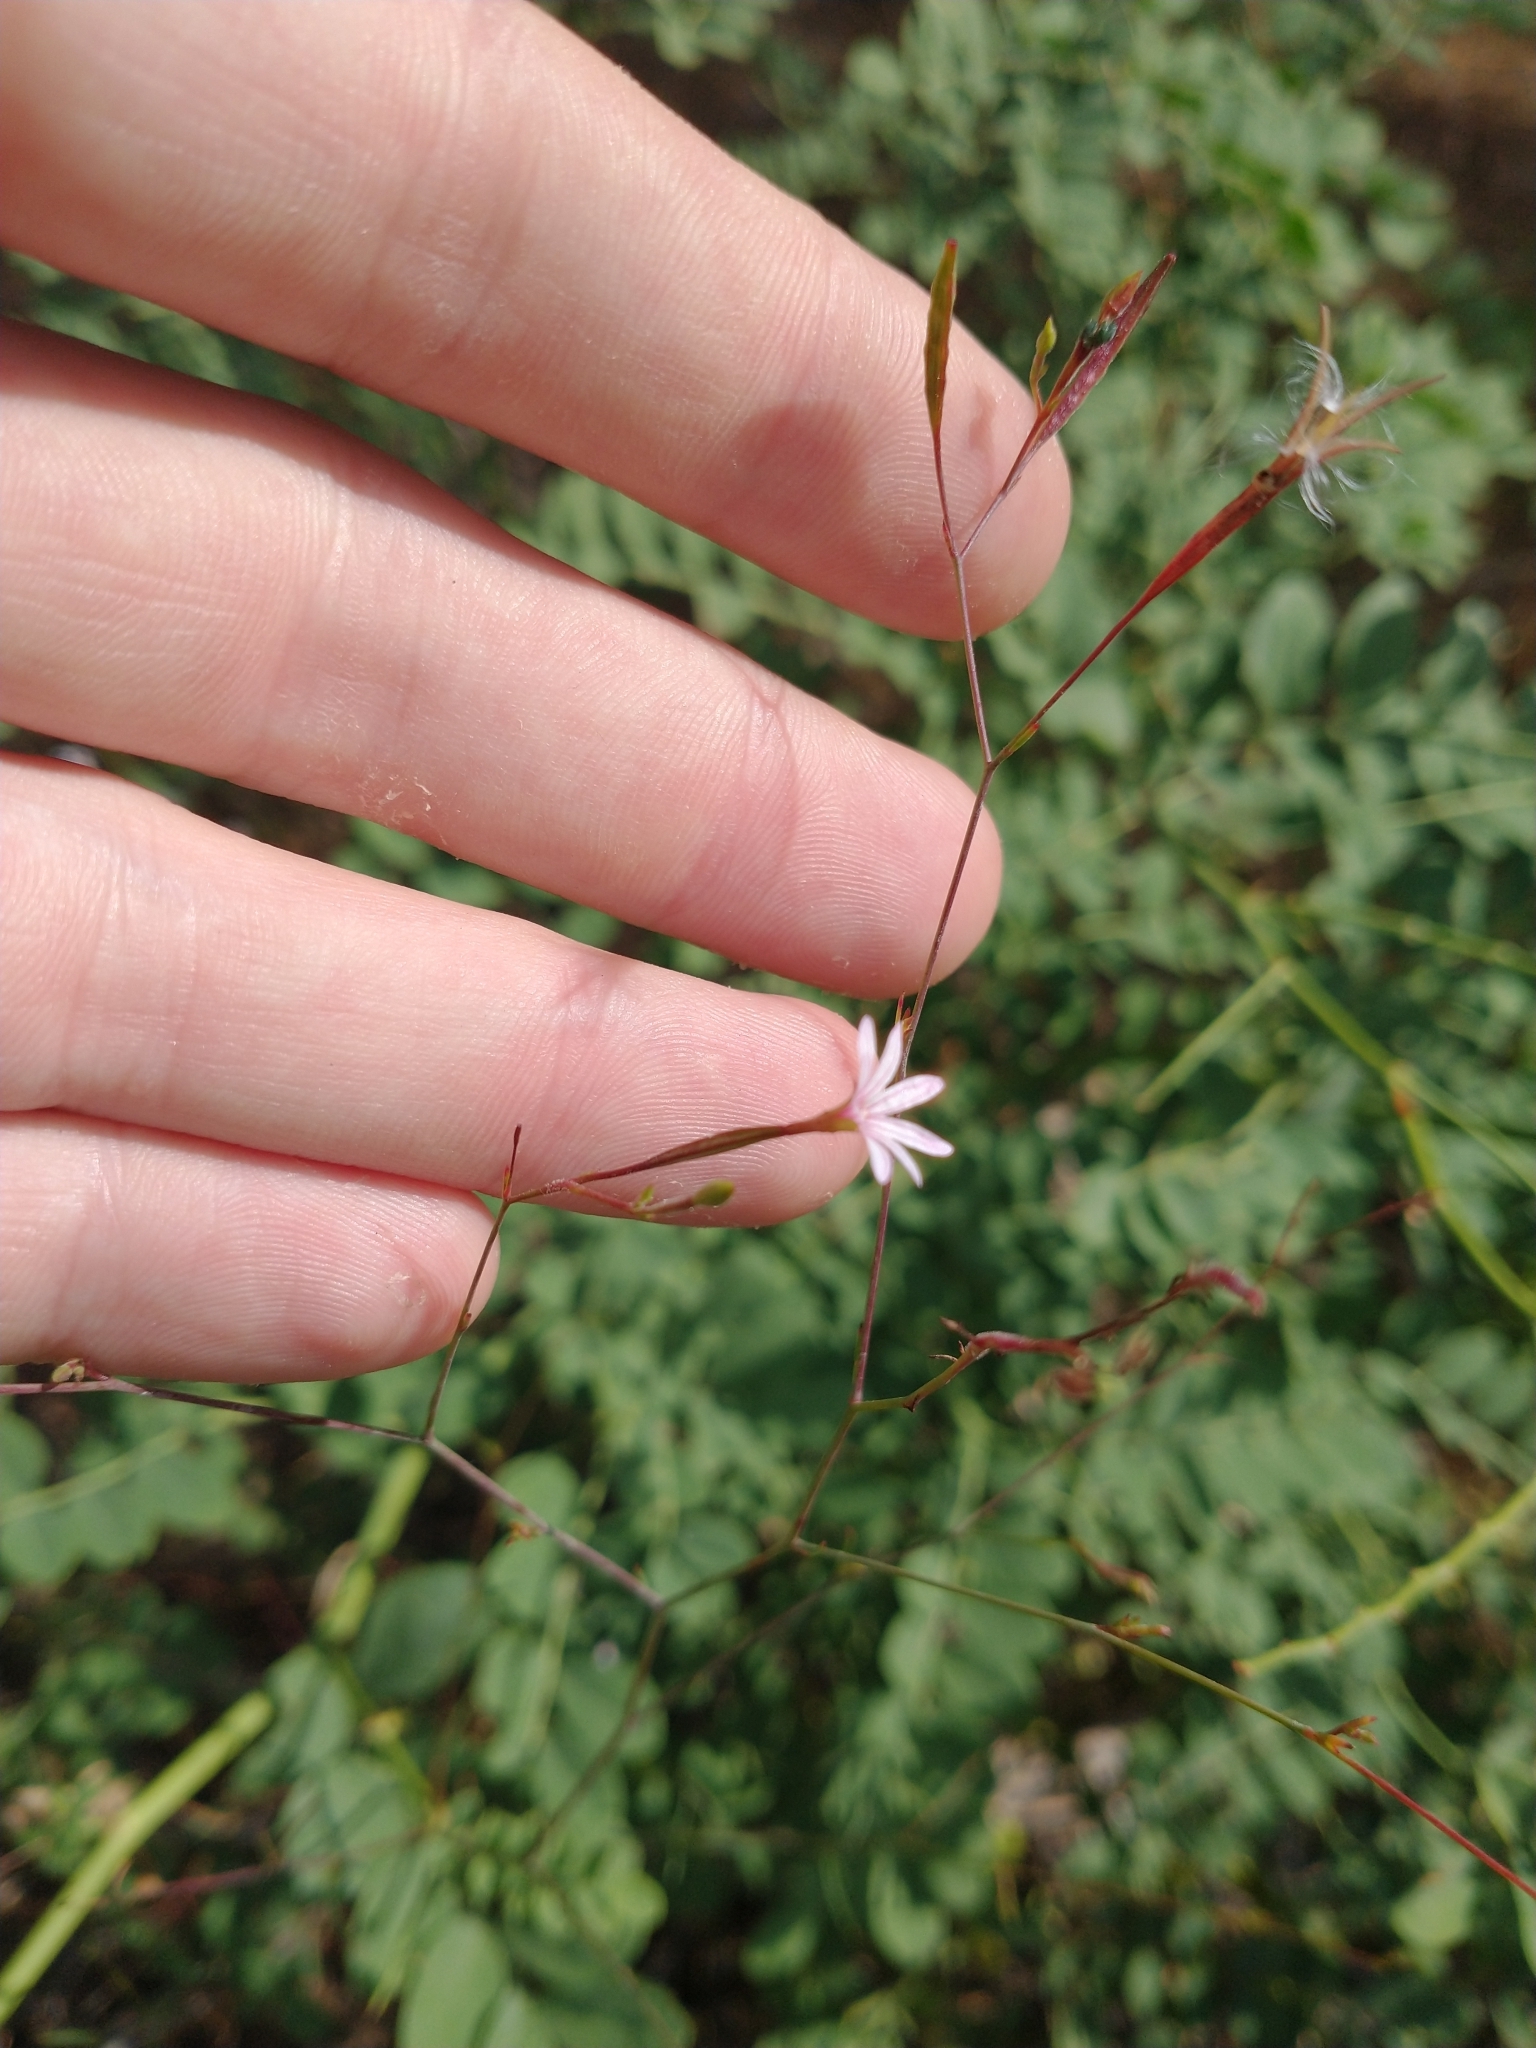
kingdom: Plantae
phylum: Tracheophyta
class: Magnoliopsida
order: Myrtales
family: Onagraceae
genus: Epilobium
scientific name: Epilobium brachycarpum
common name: Annual willowherb
